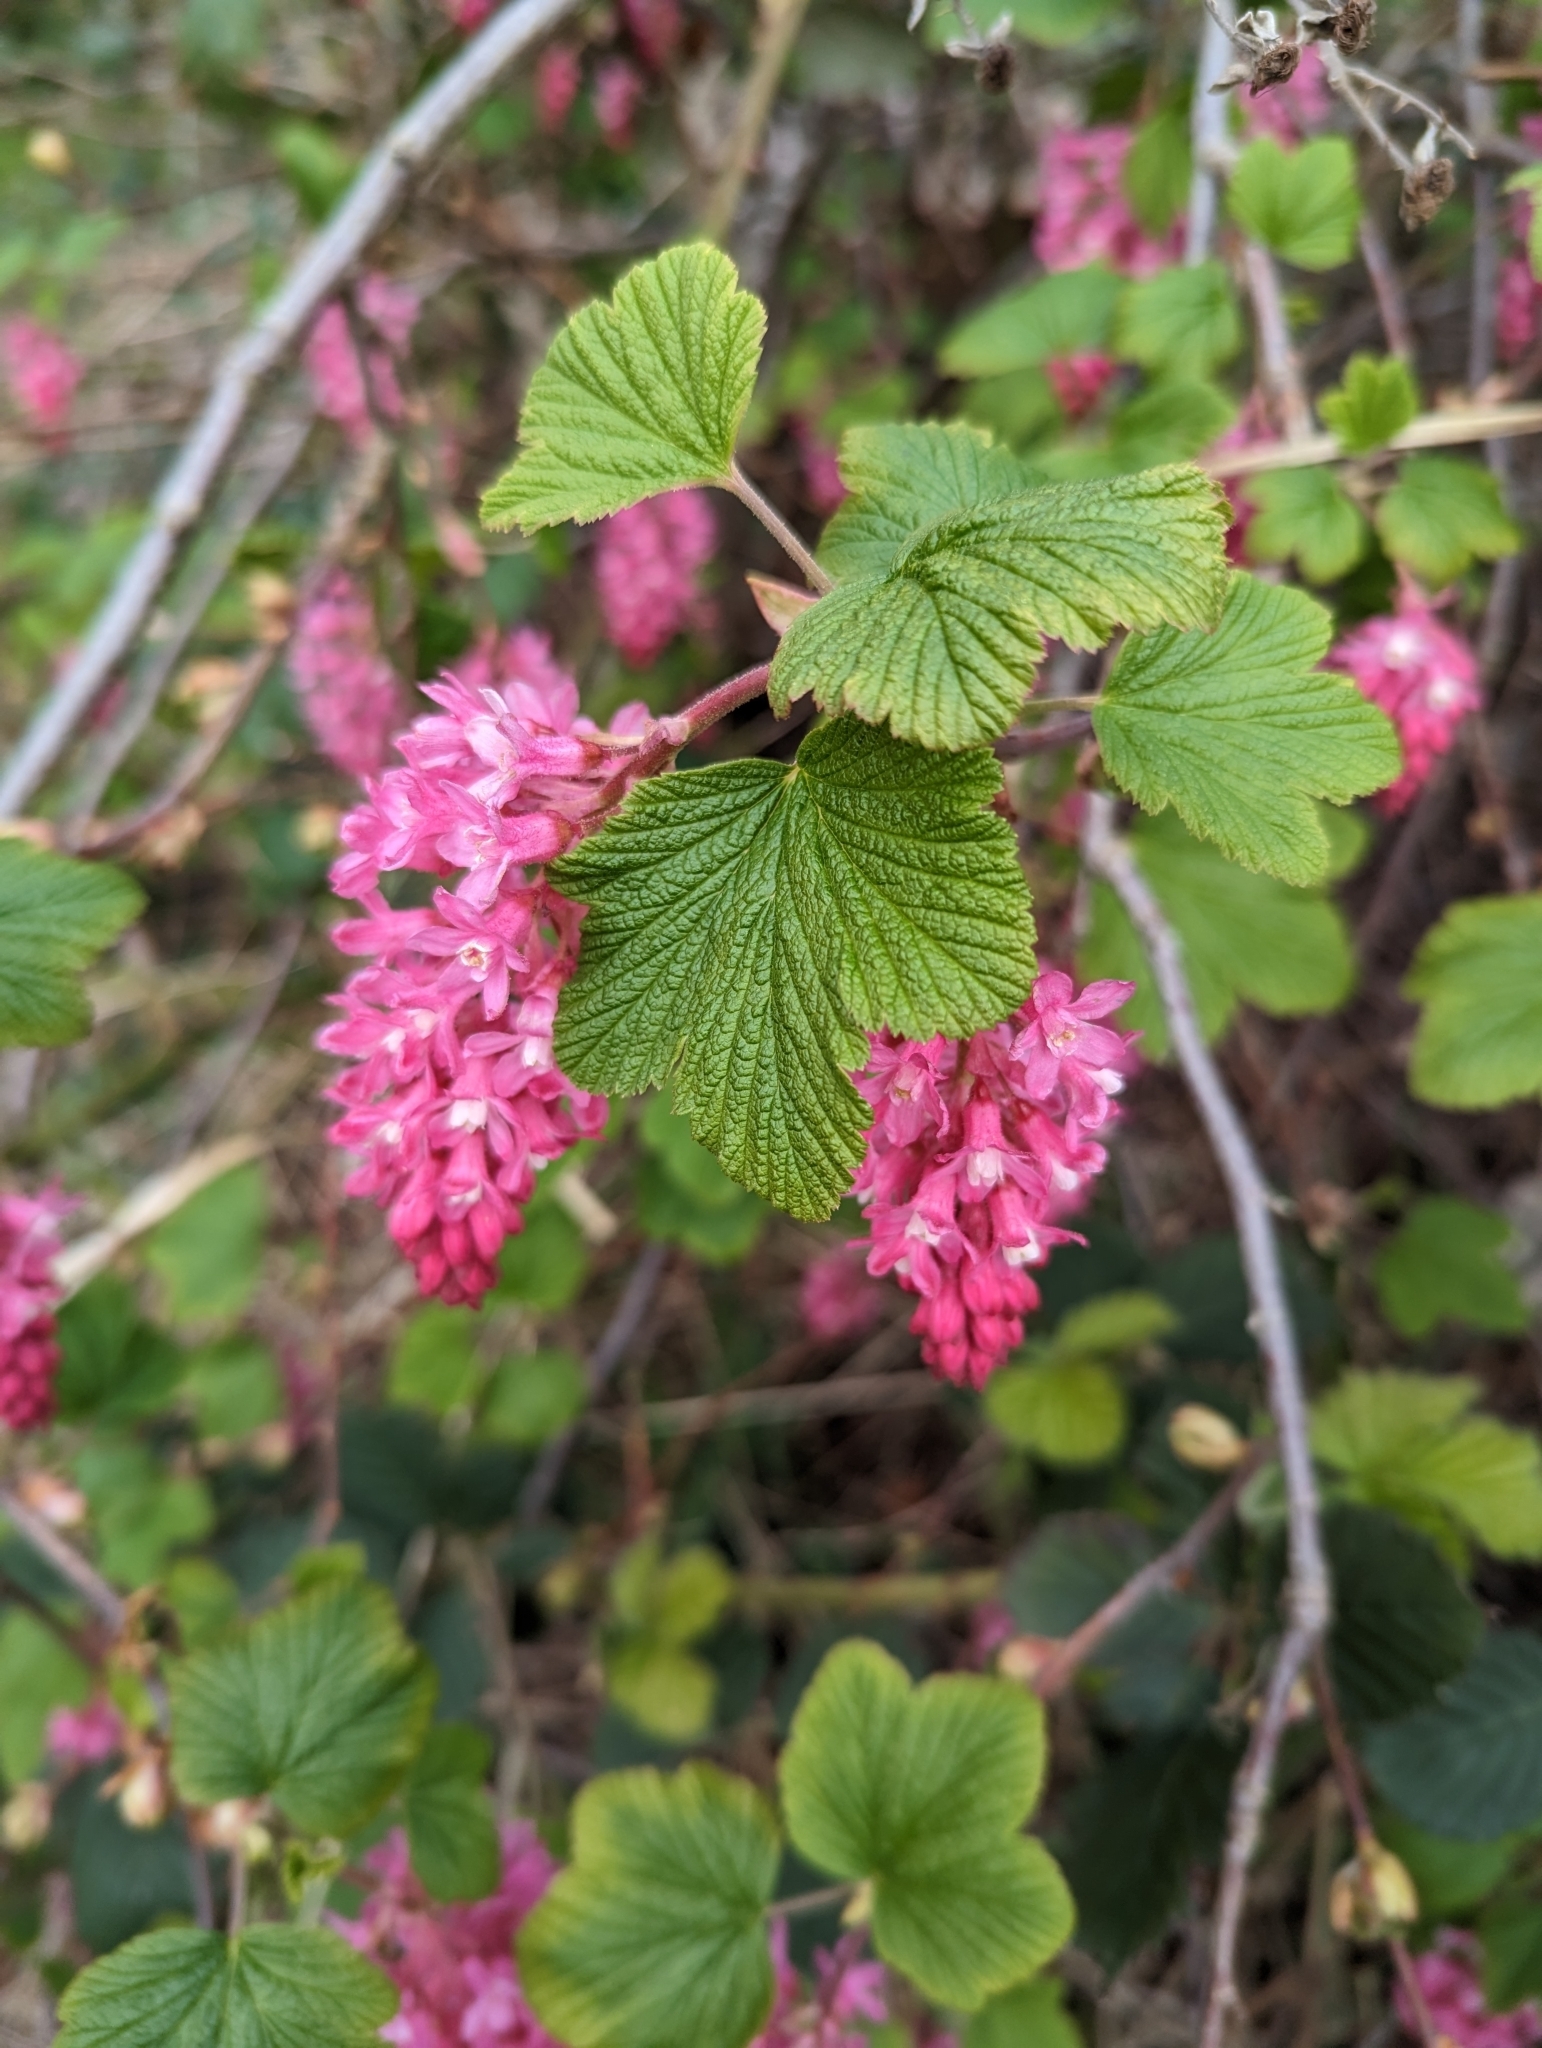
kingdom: Plantae
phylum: Tracheophyta
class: Magnoliopsida
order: Saxifragales
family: Grossulariaceae
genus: Ribes
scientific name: Ribes sanguineum
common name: Flowering currant
